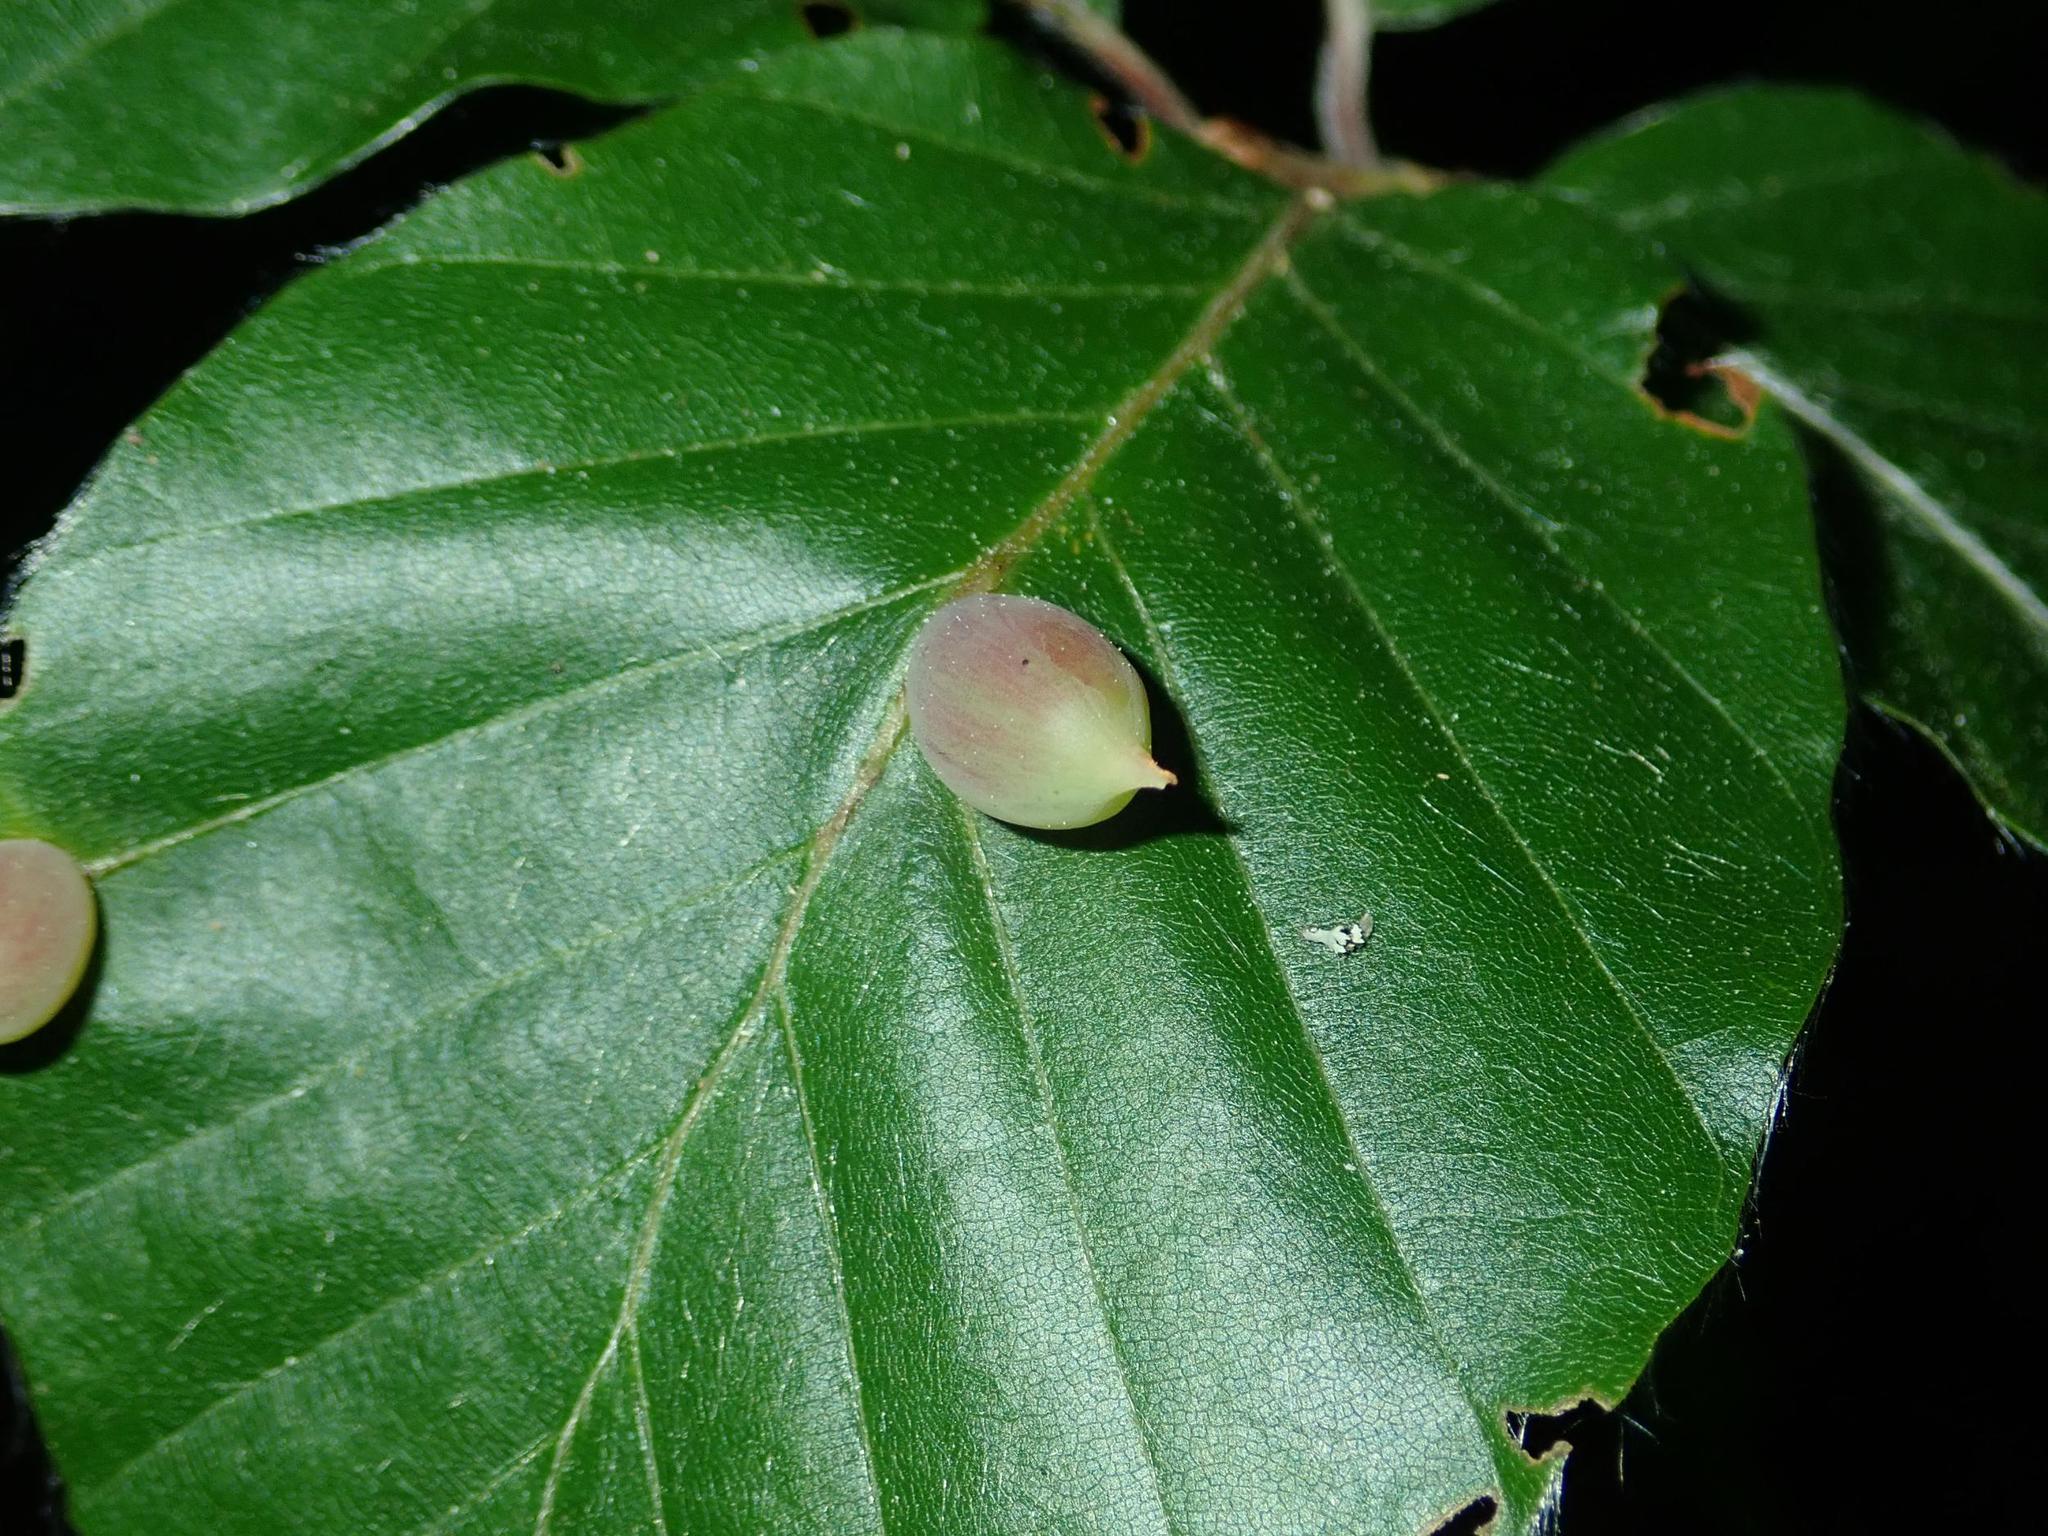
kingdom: Animalia
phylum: Arthropoda
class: Insecta
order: Diptera
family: Cecidomyiidae
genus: Mikiola
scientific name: Mikiola fagi
